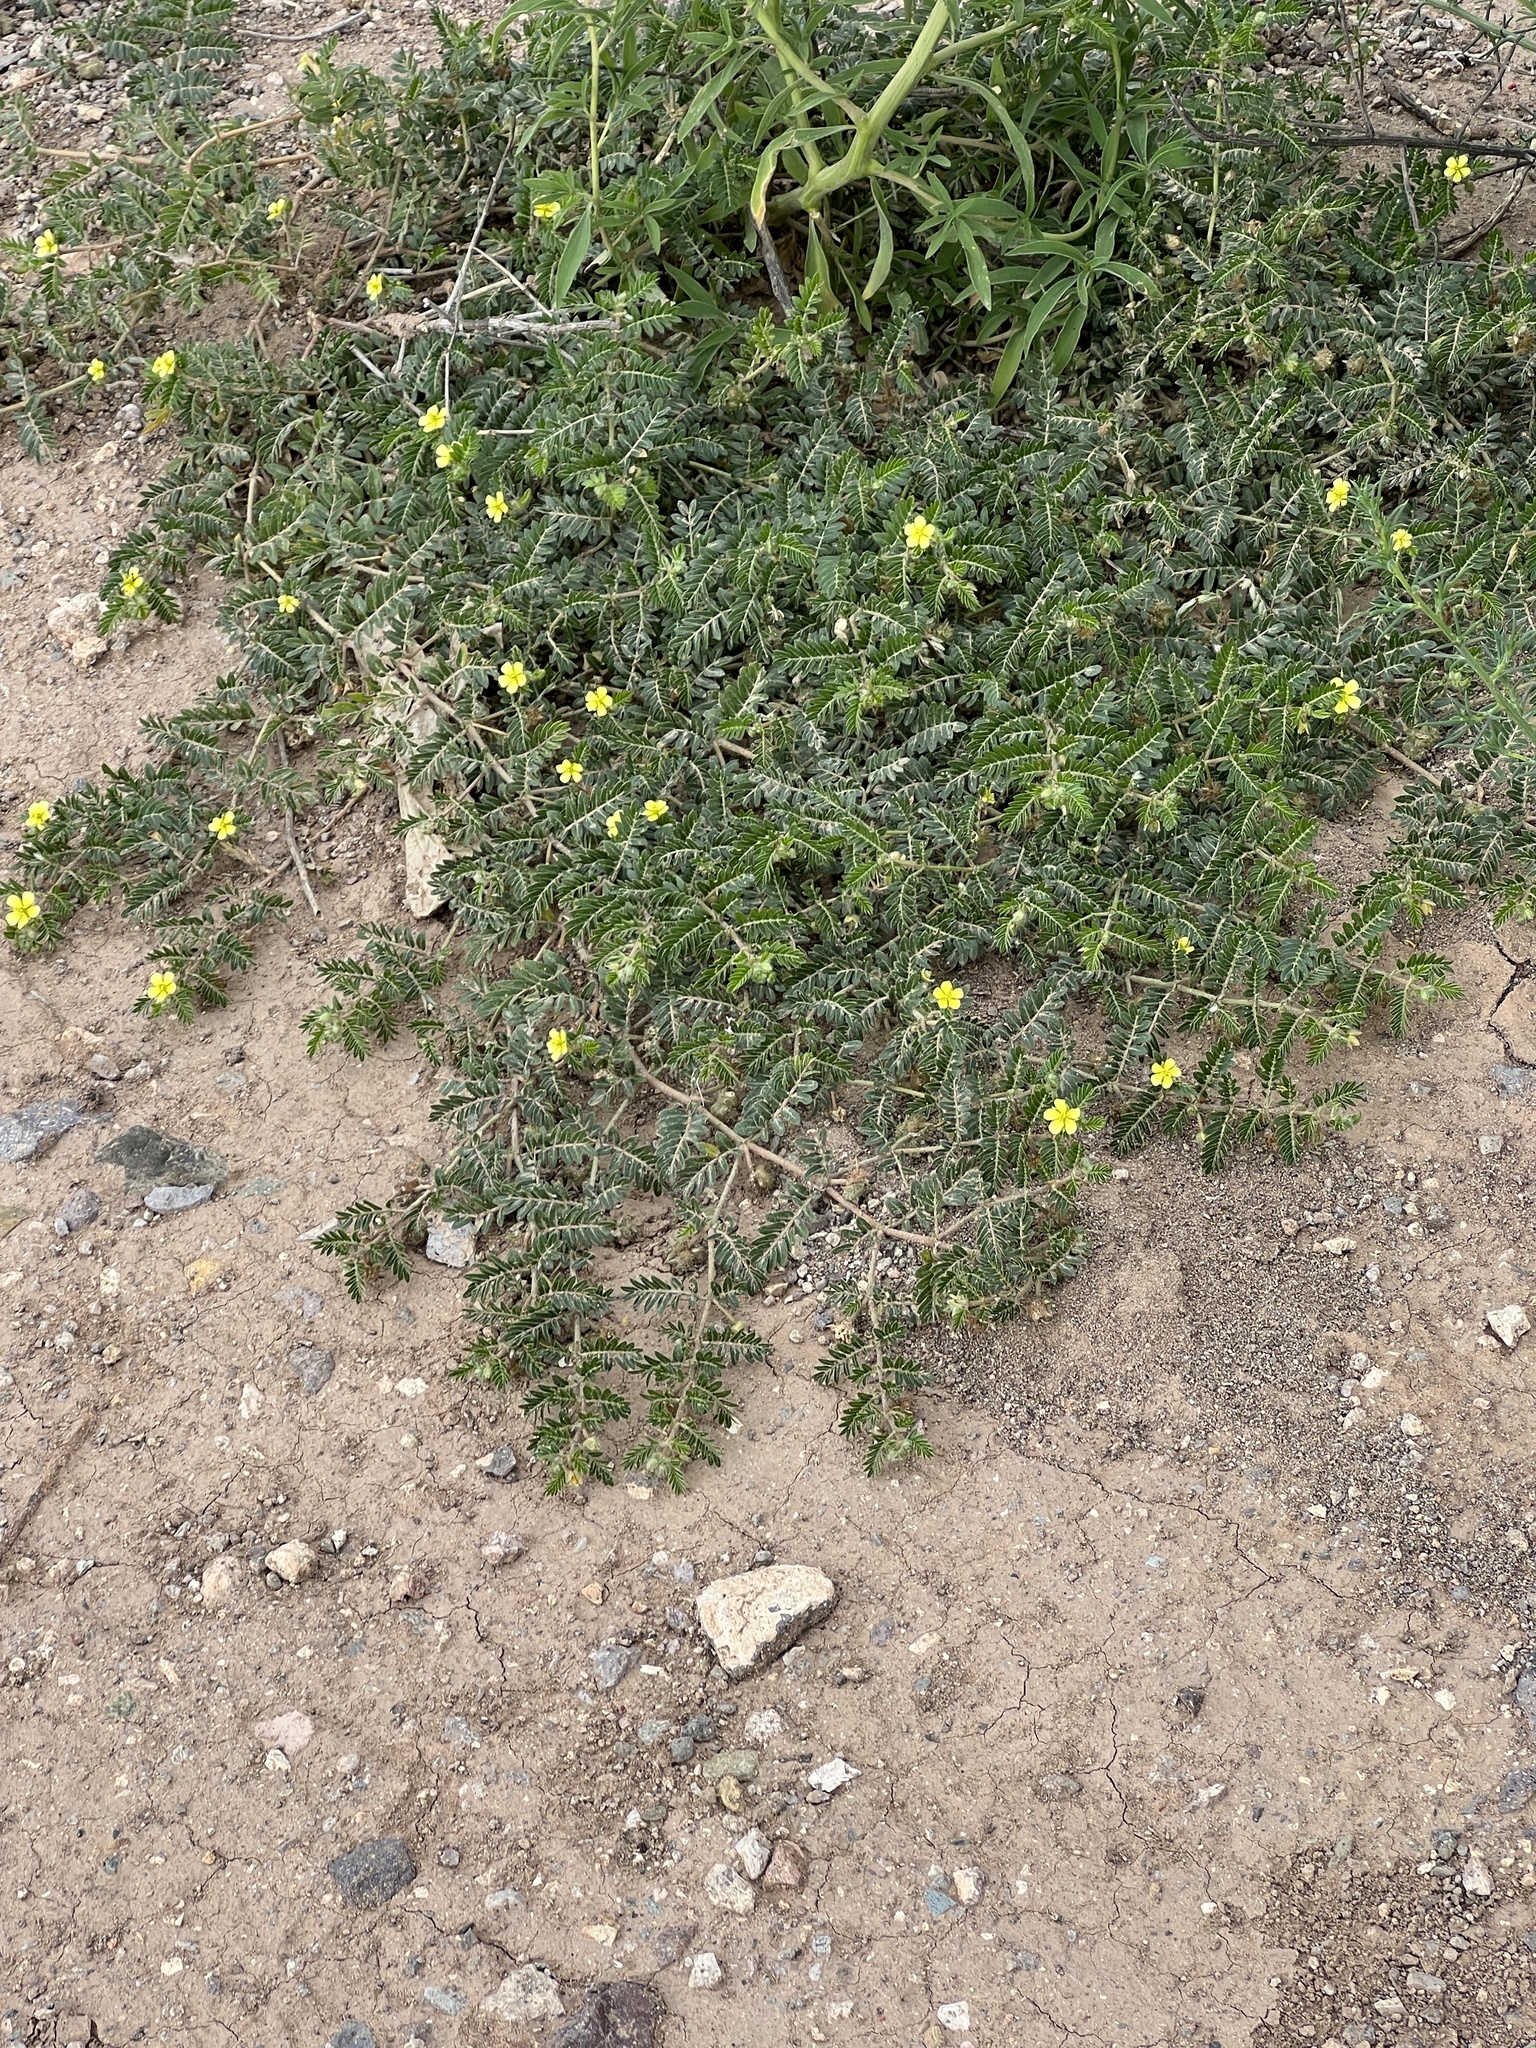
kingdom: Plantae
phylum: Tracheophyta
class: Magnoliopsida
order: Zygophyllales
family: Zygophyllaceae
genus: Tribulus
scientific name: Tribulus terrestris
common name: Puncturevine
